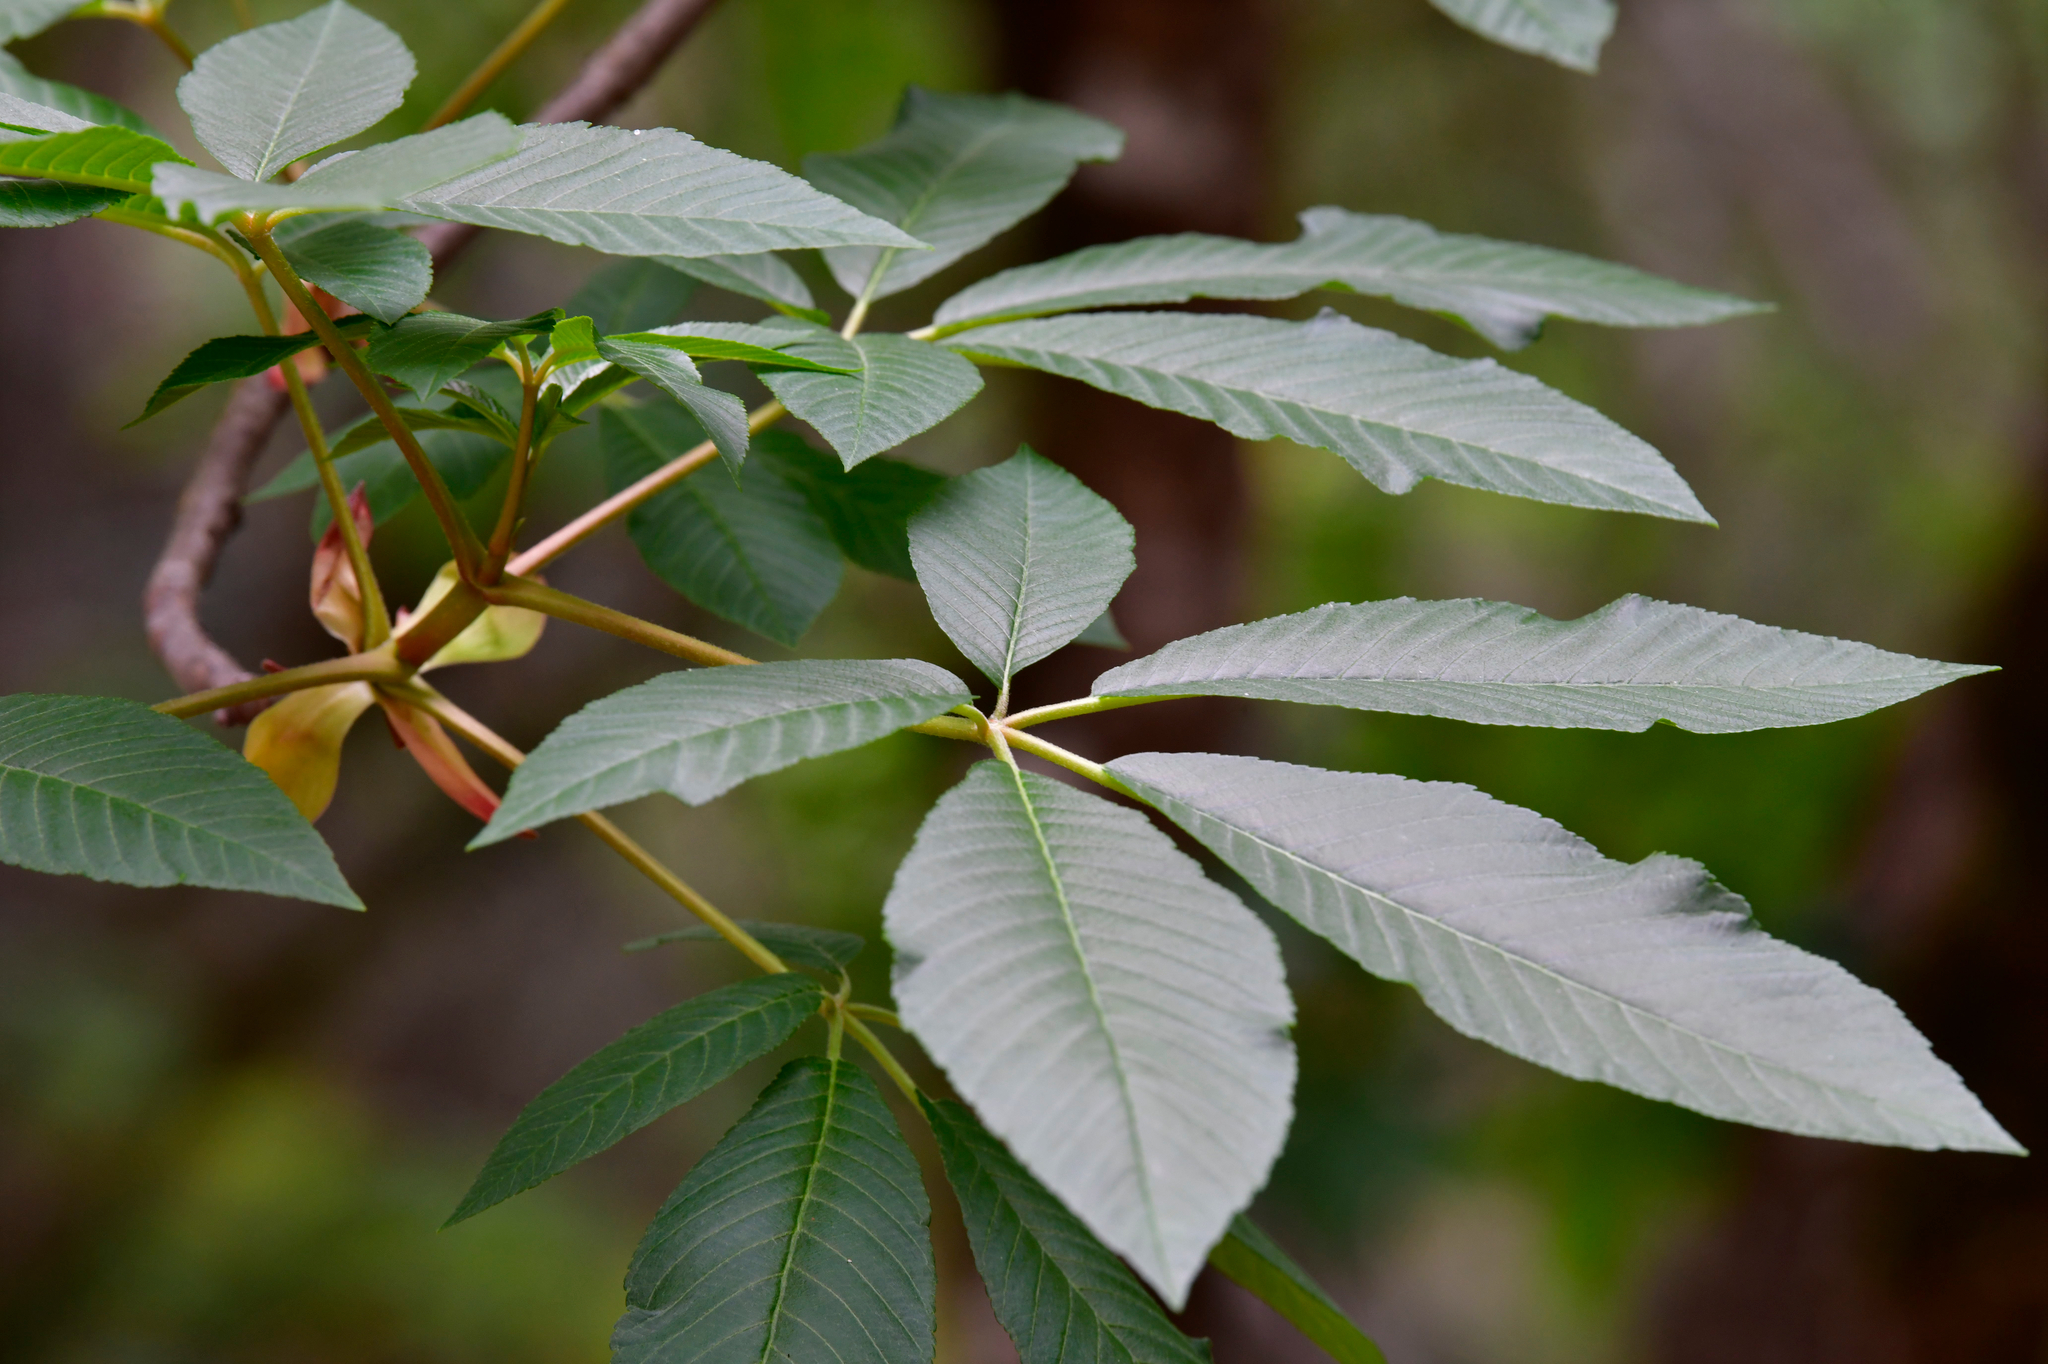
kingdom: Plantae
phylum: Tracheophyta
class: Magnoliopsida
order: Sapindales
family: Sapindaceae
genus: Aesculus
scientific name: Aesculus californica
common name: California buckeye
